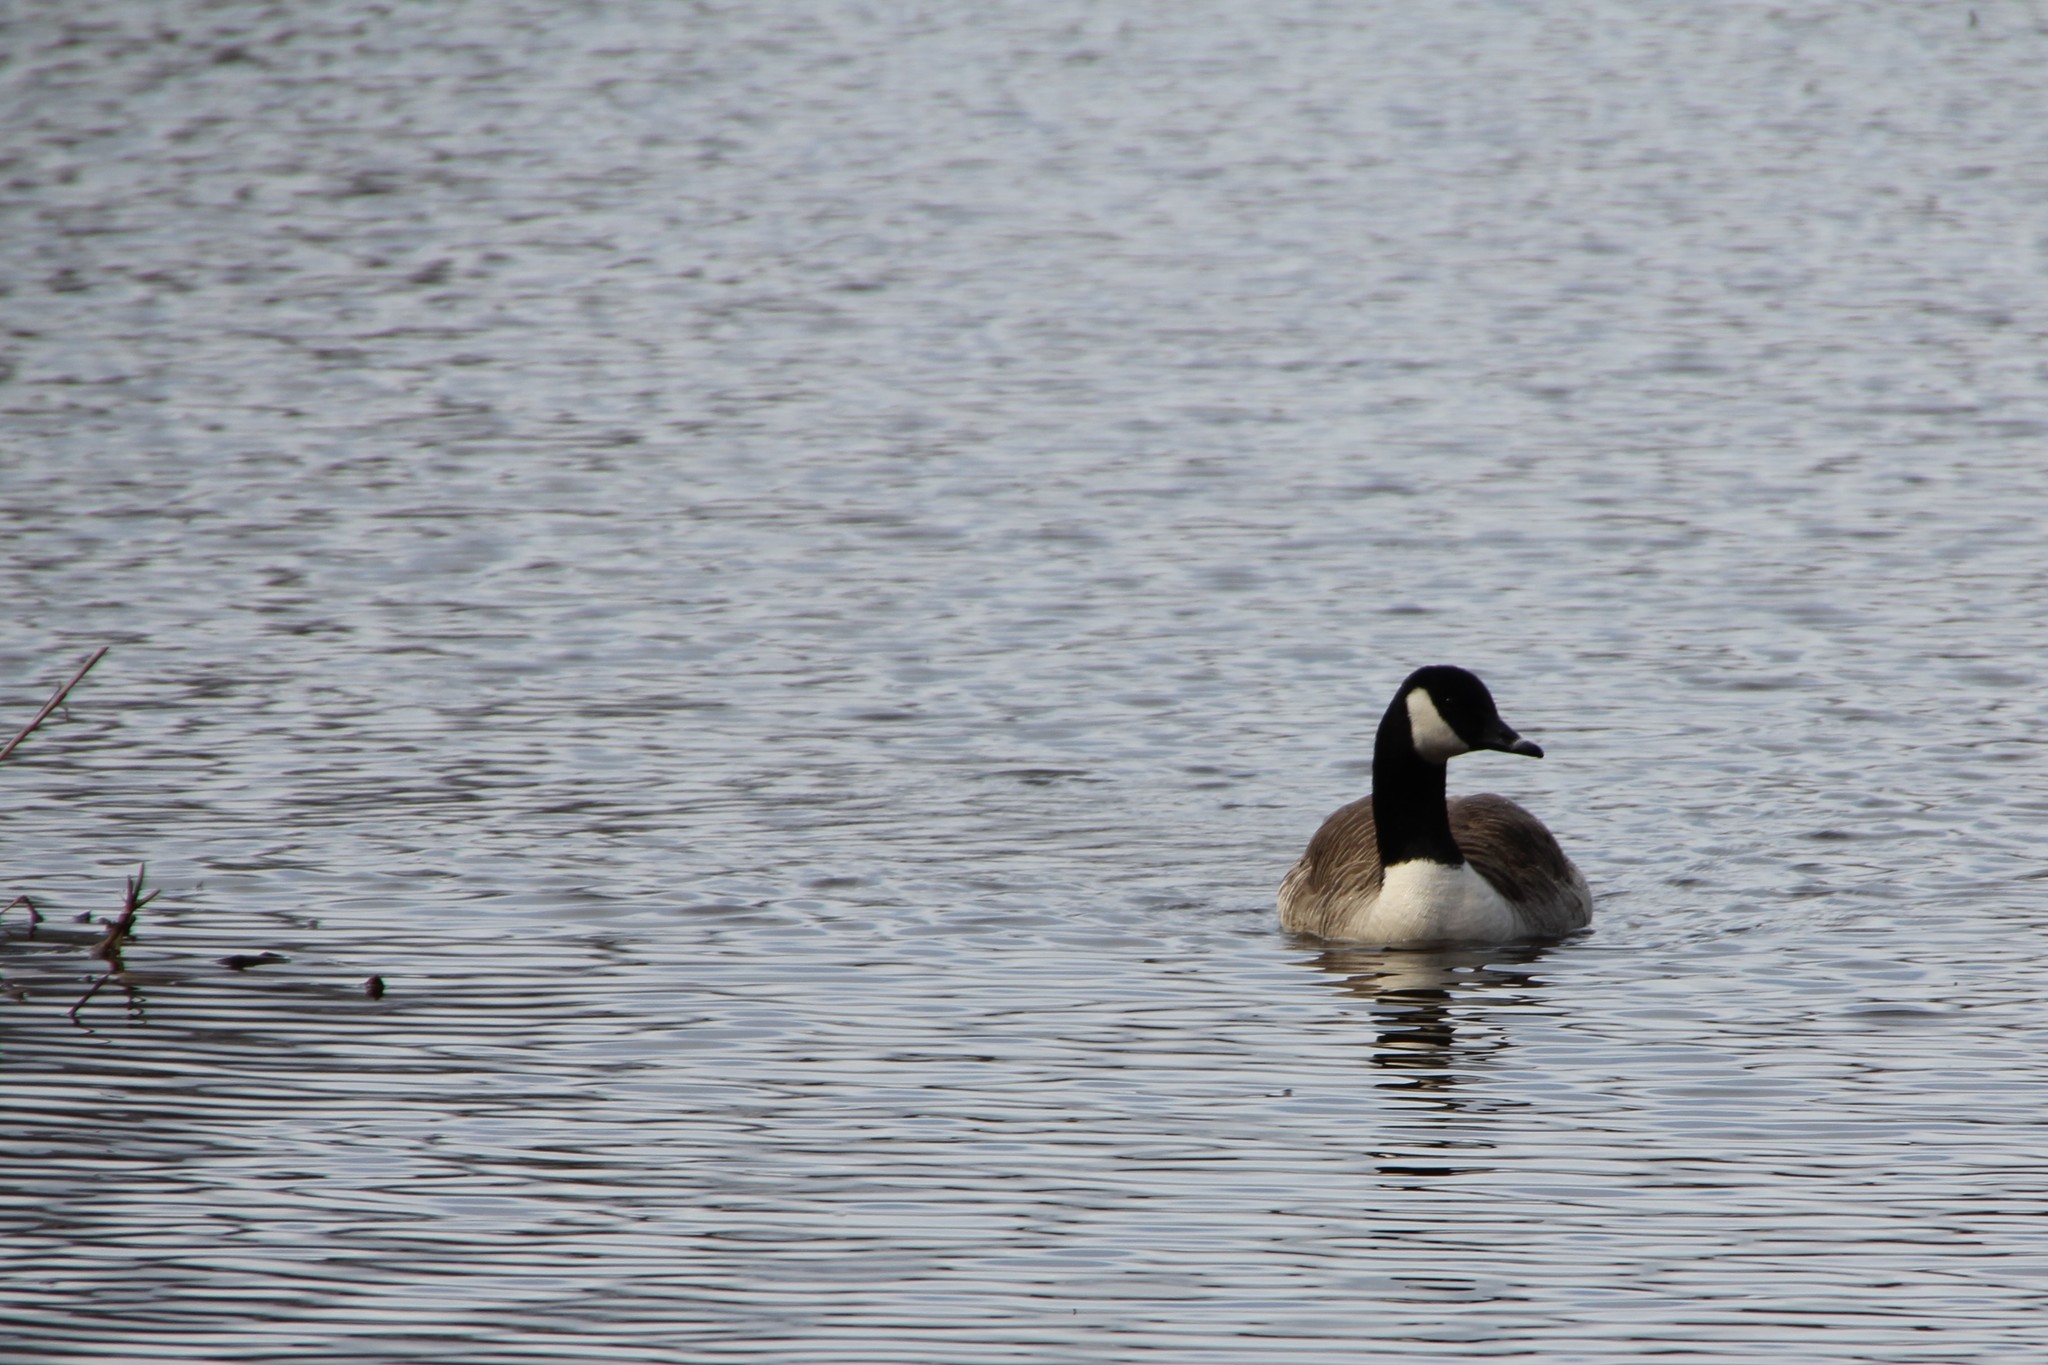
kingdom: Animalia
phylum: Chordata
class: Aves
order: Anseriformes
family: Anatidae
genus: Branta
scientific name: Branta canadensis
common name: Canada goose
